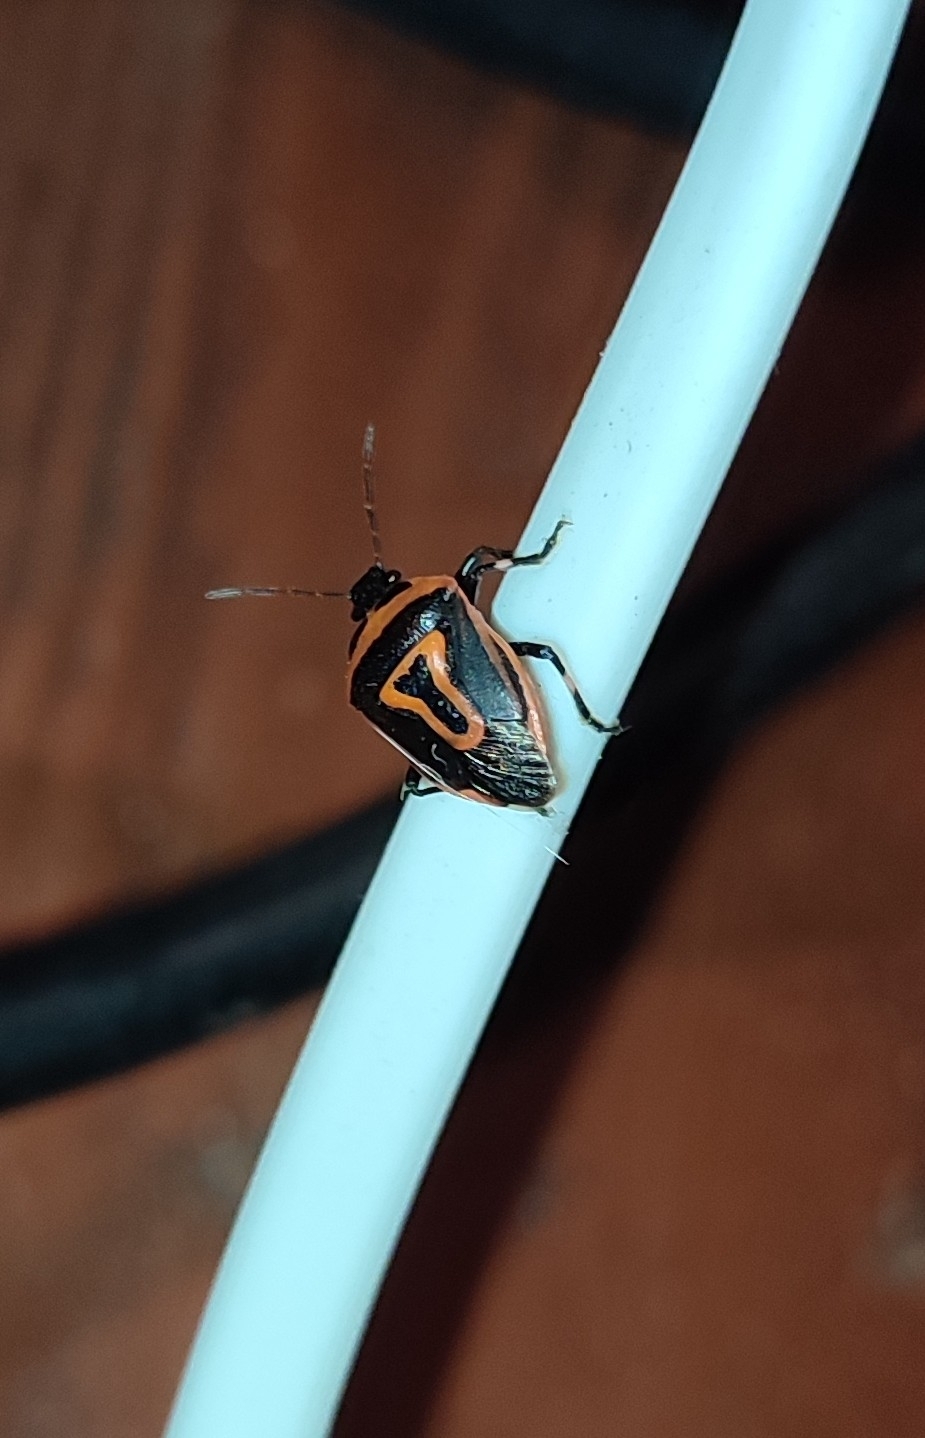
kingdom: Animalia
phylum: Arthropoda
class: Insecta
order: Hemiptera
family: Pentatomidae
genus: Perillus
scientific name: Perillus bioculatus
